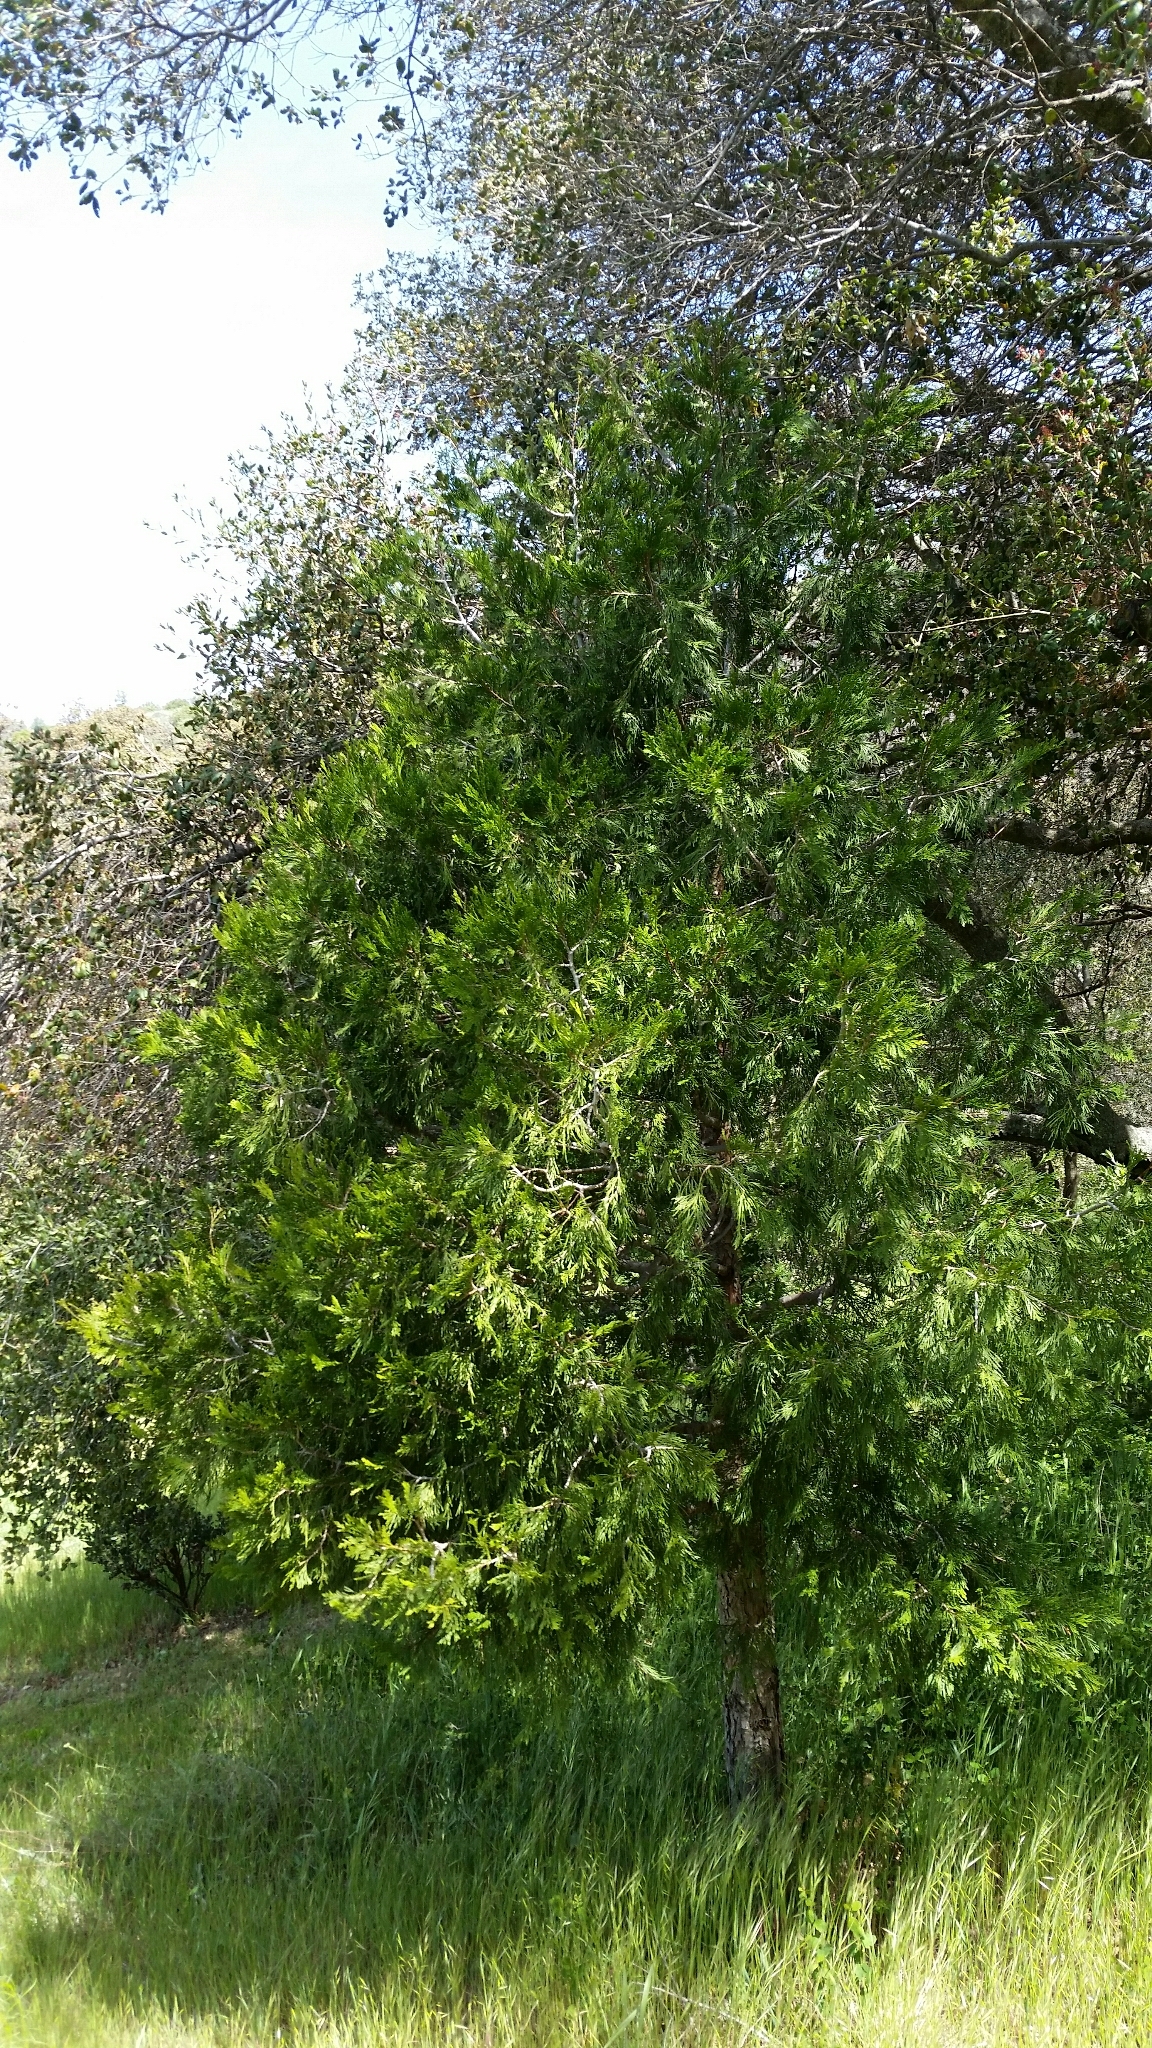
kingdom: Plantae
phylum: Tracheophyta
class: Pinopsida
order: Pinales
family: Cupressaceae
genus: Calocedrus
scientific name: Calocedrus decurrens
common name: Californian incense-cedar
